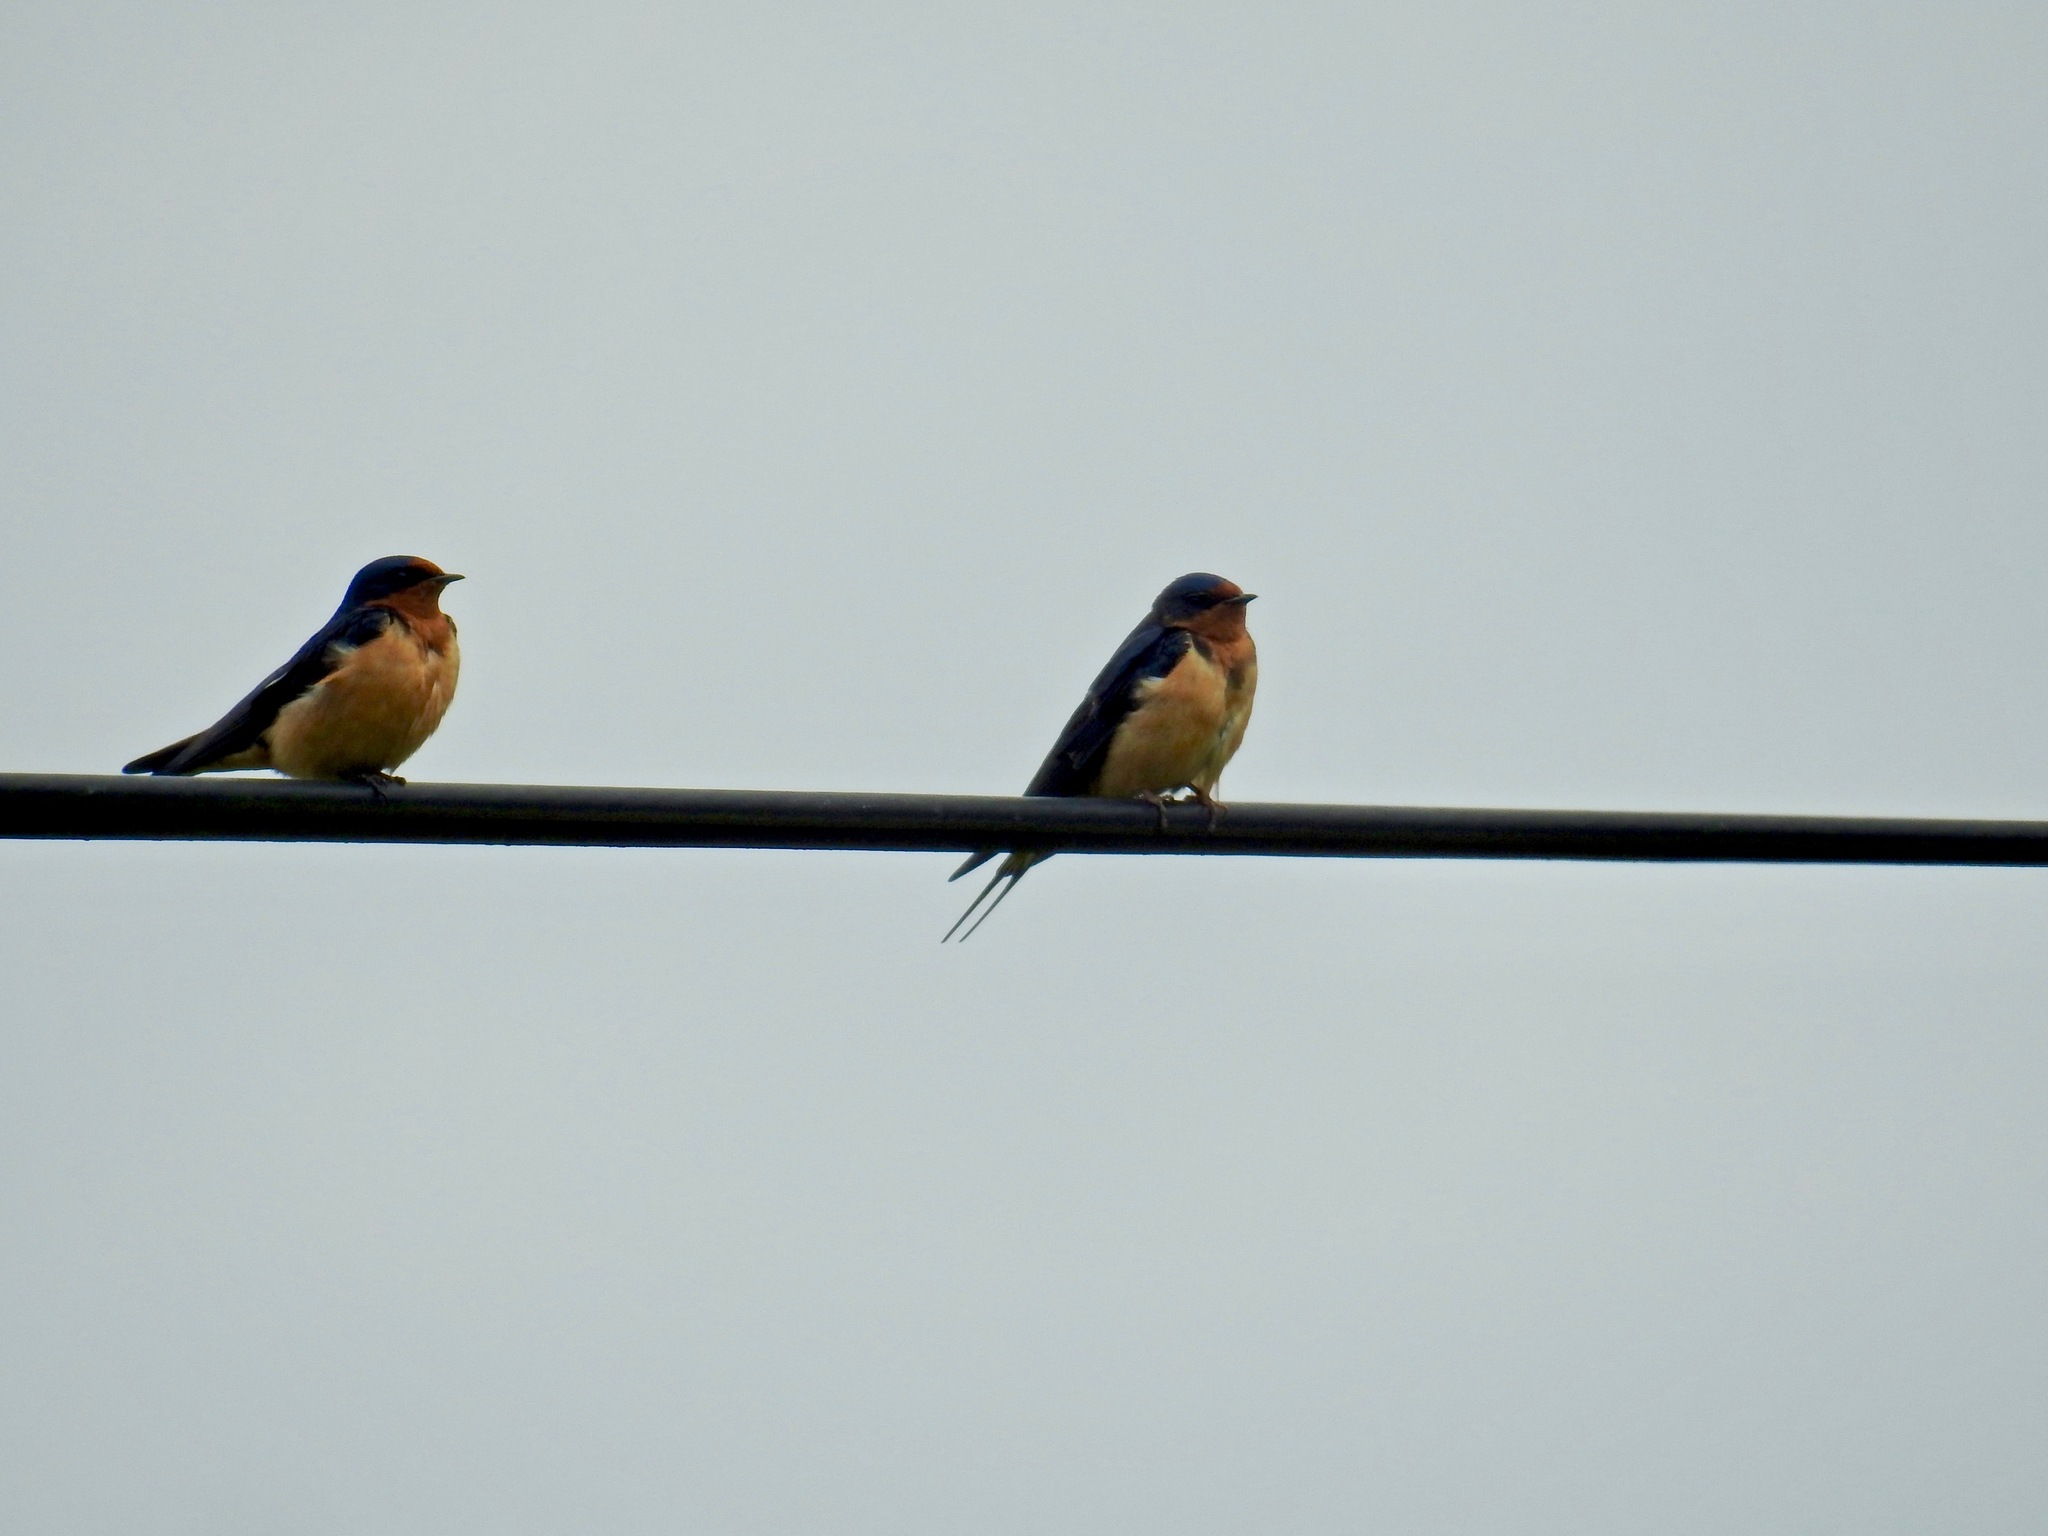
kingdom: Animalia
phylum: Chordata
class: Aves
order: Passeriformes
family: Hirundinidae
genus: Hirundo
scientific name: Hirundo rustica
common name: Barn swallow
